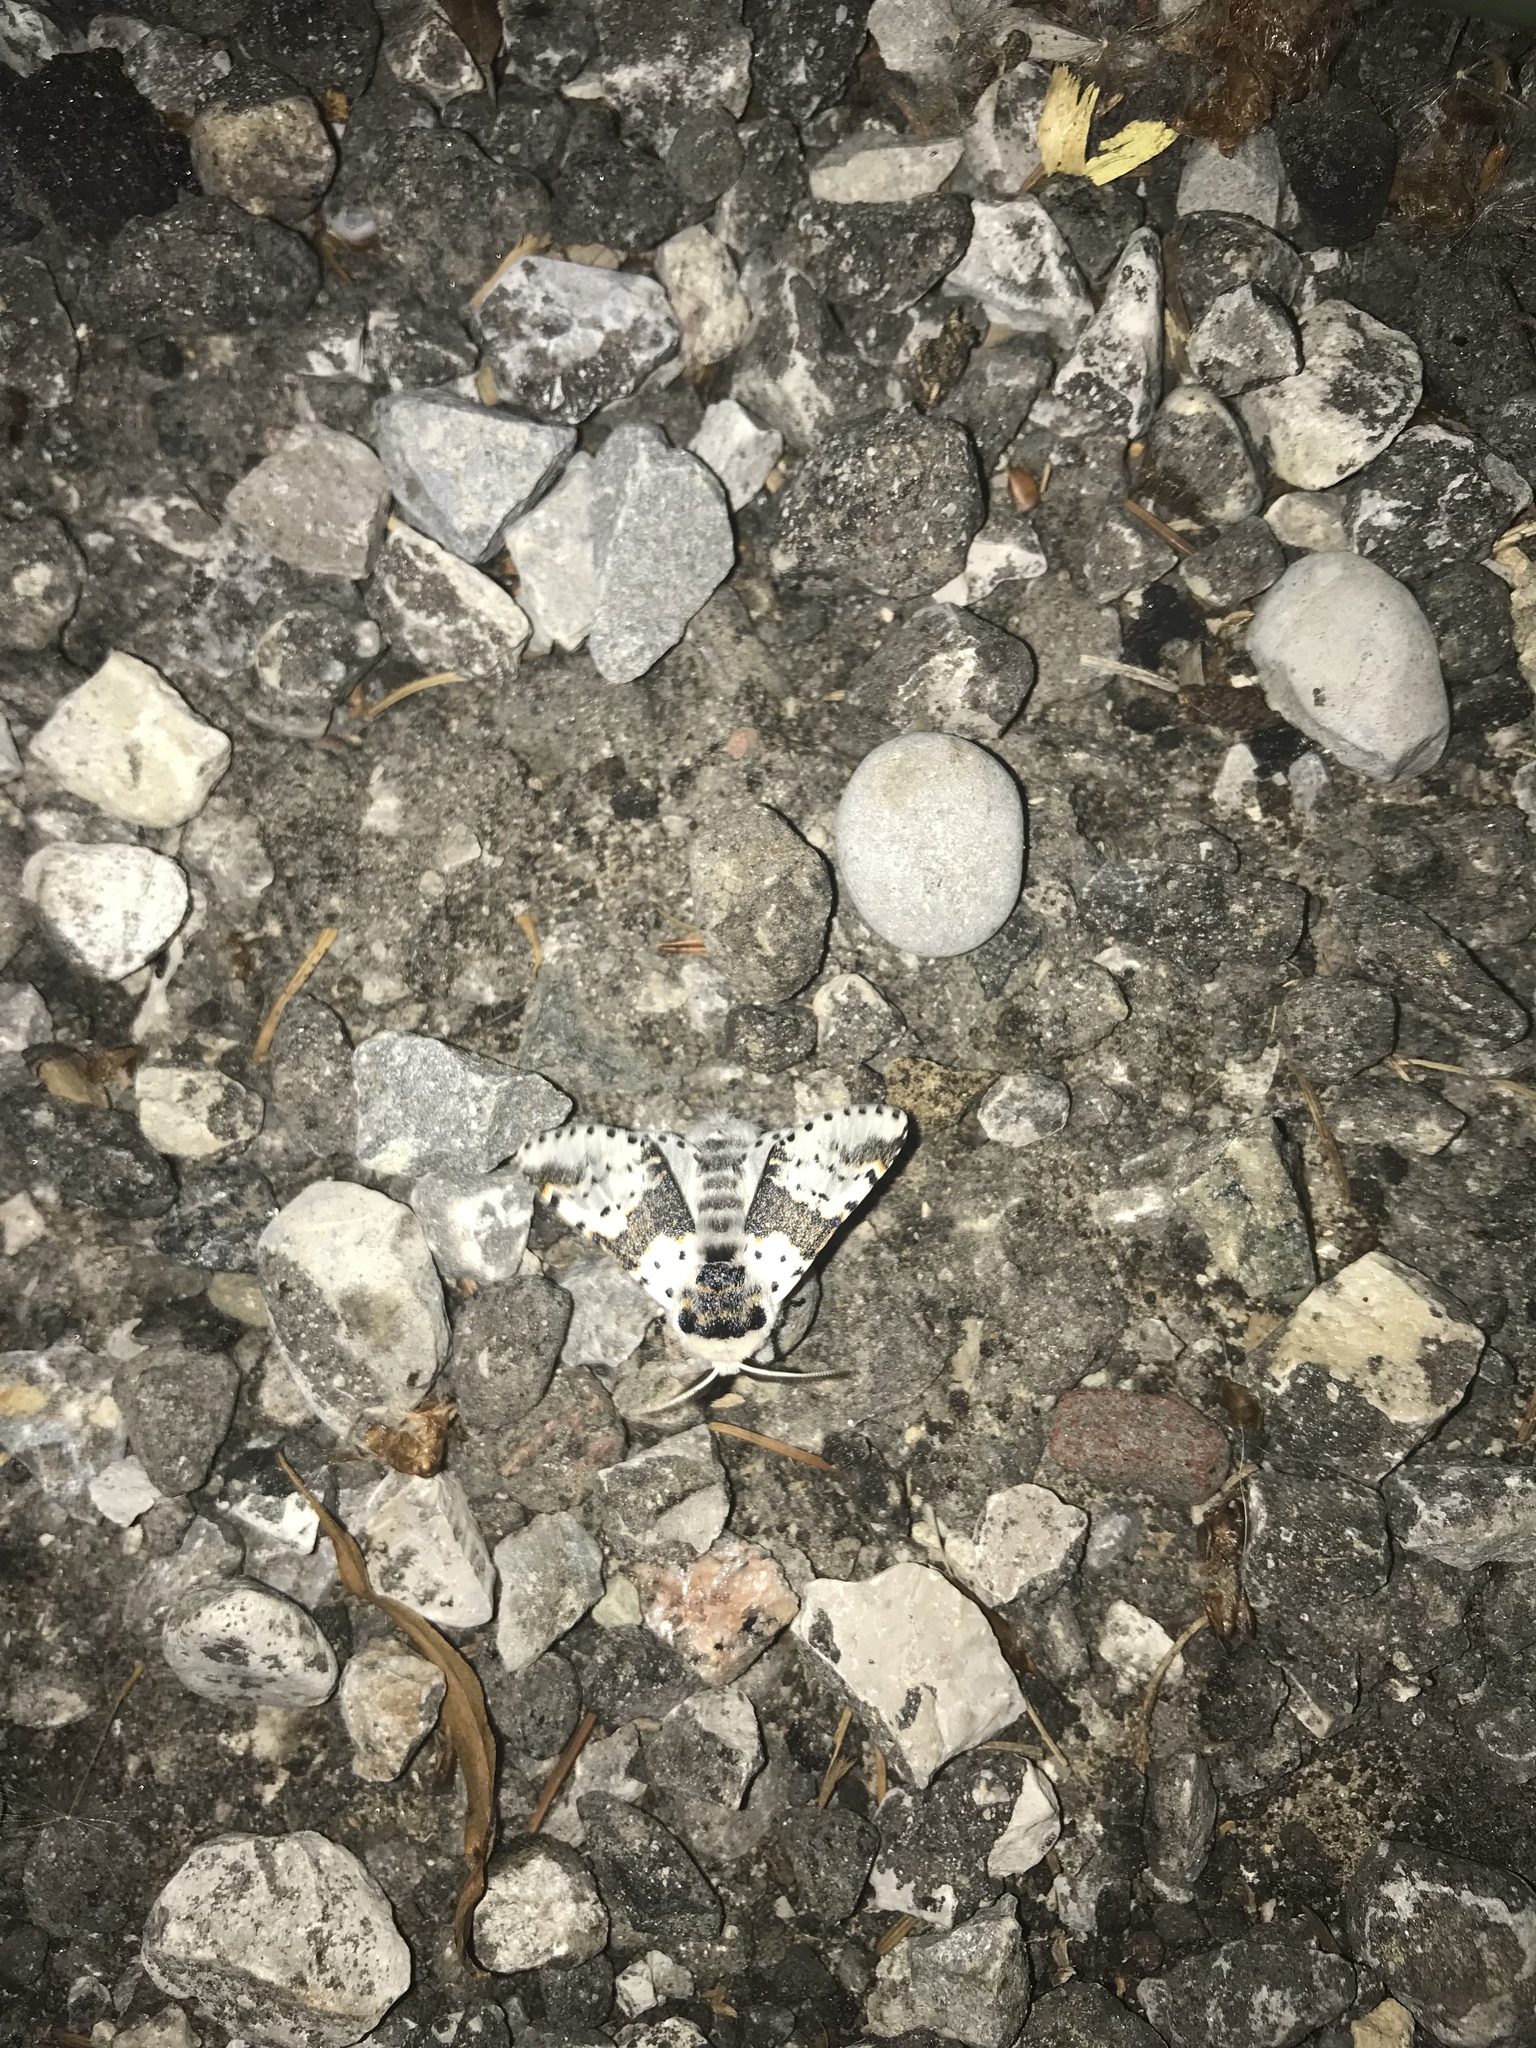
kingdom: Animalia
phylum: Arthropoda
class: Insecta
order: Lepidoptera
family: Notodontidae
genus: Furcula
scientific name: Furcula borealis
